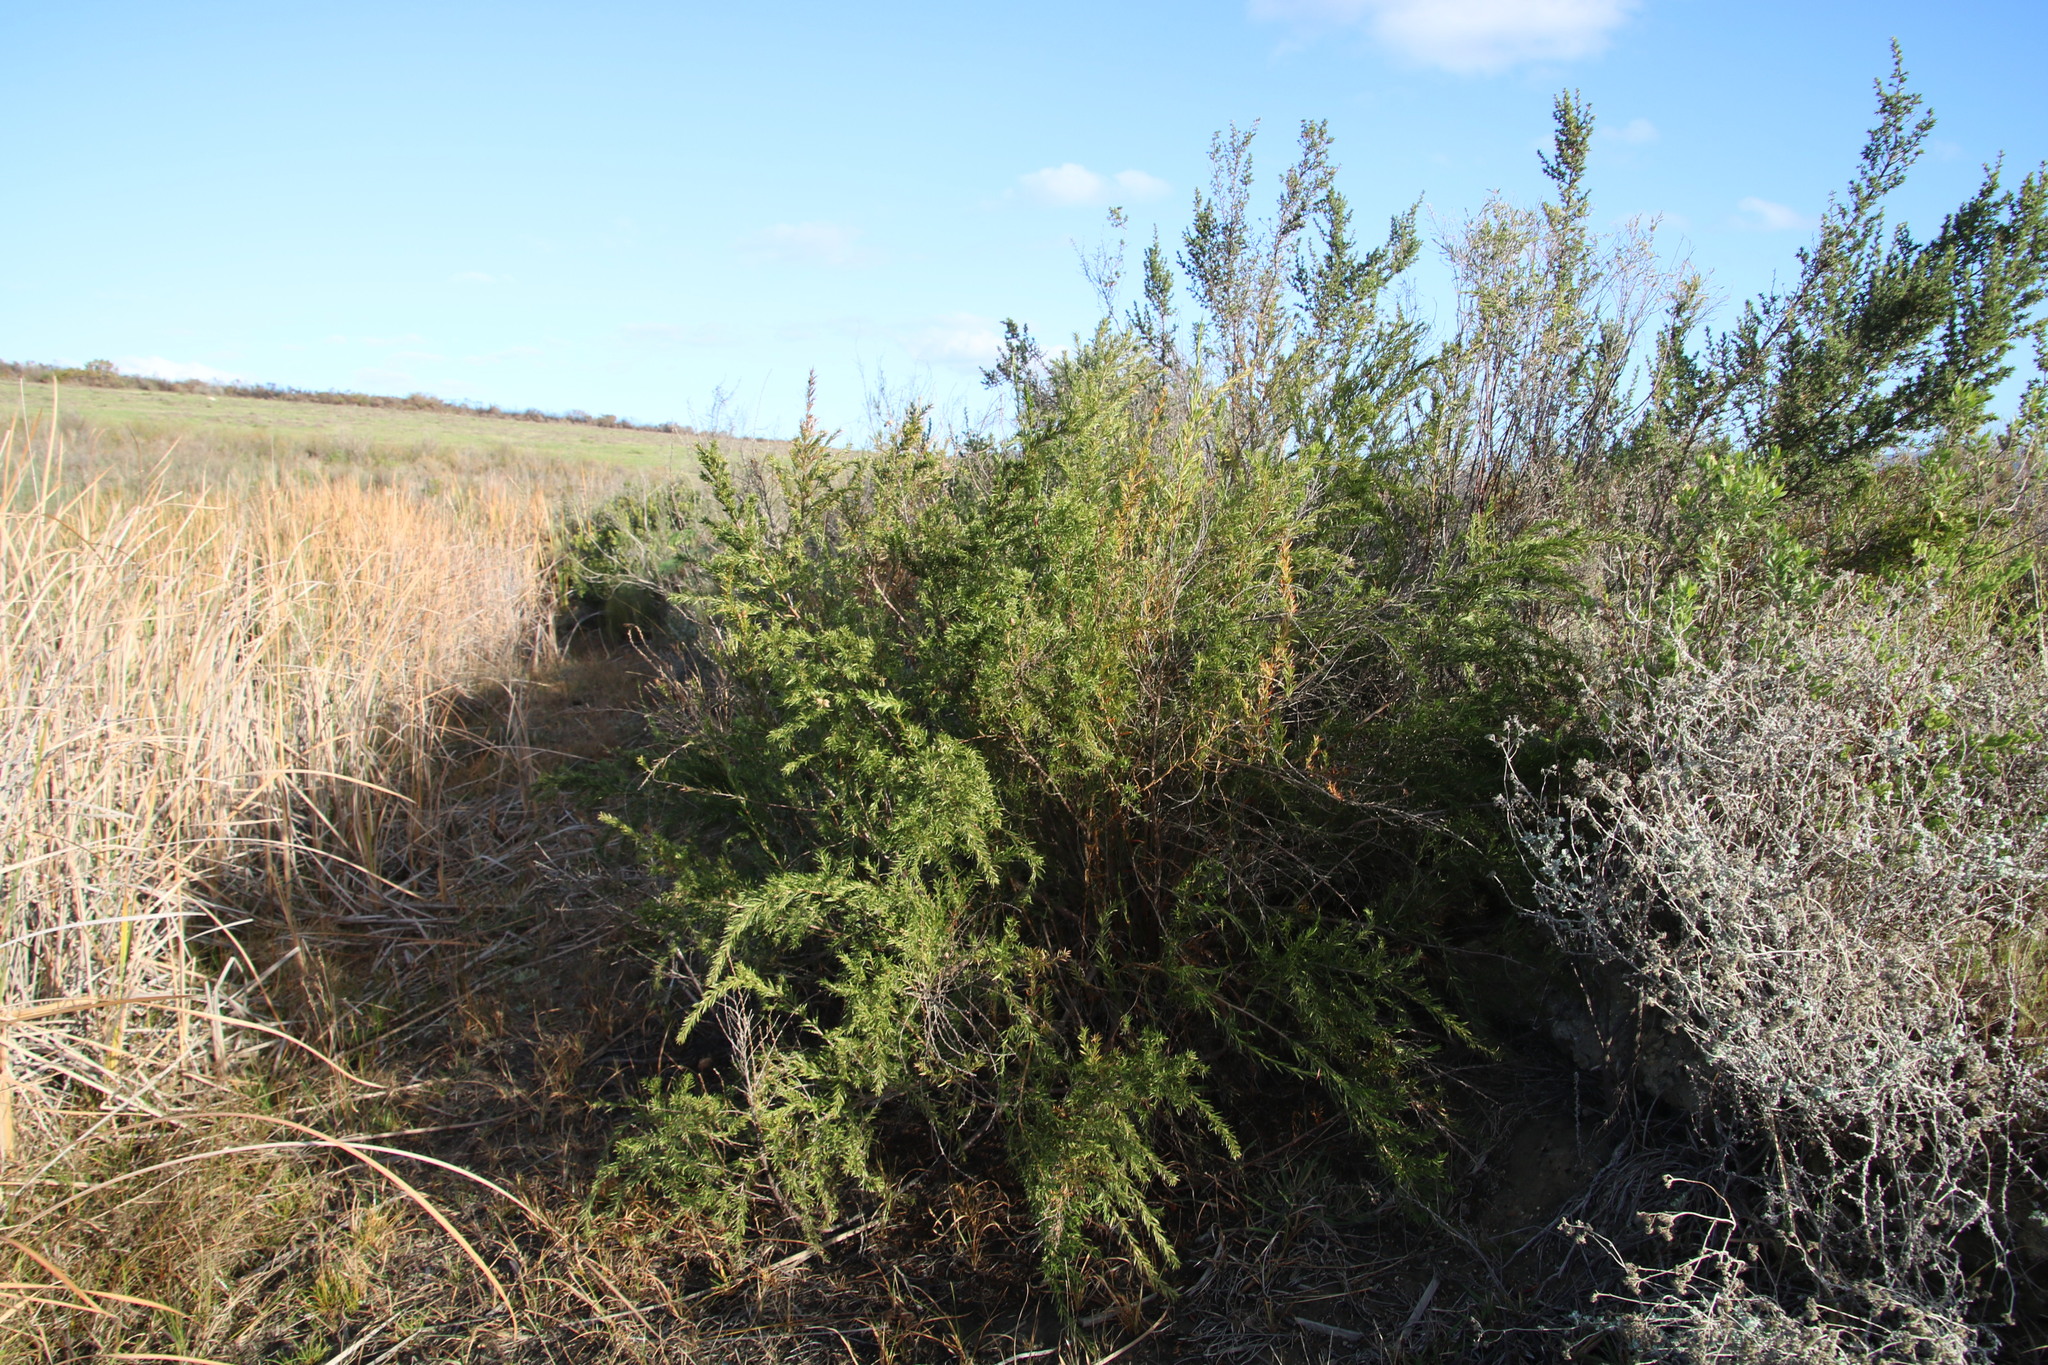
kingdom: Plantae
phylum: Tracheophyta
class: Magnoliopsida
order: Rosales
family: Rosaceae
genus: Cliffortia
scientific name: Cliffortia strobilifera
